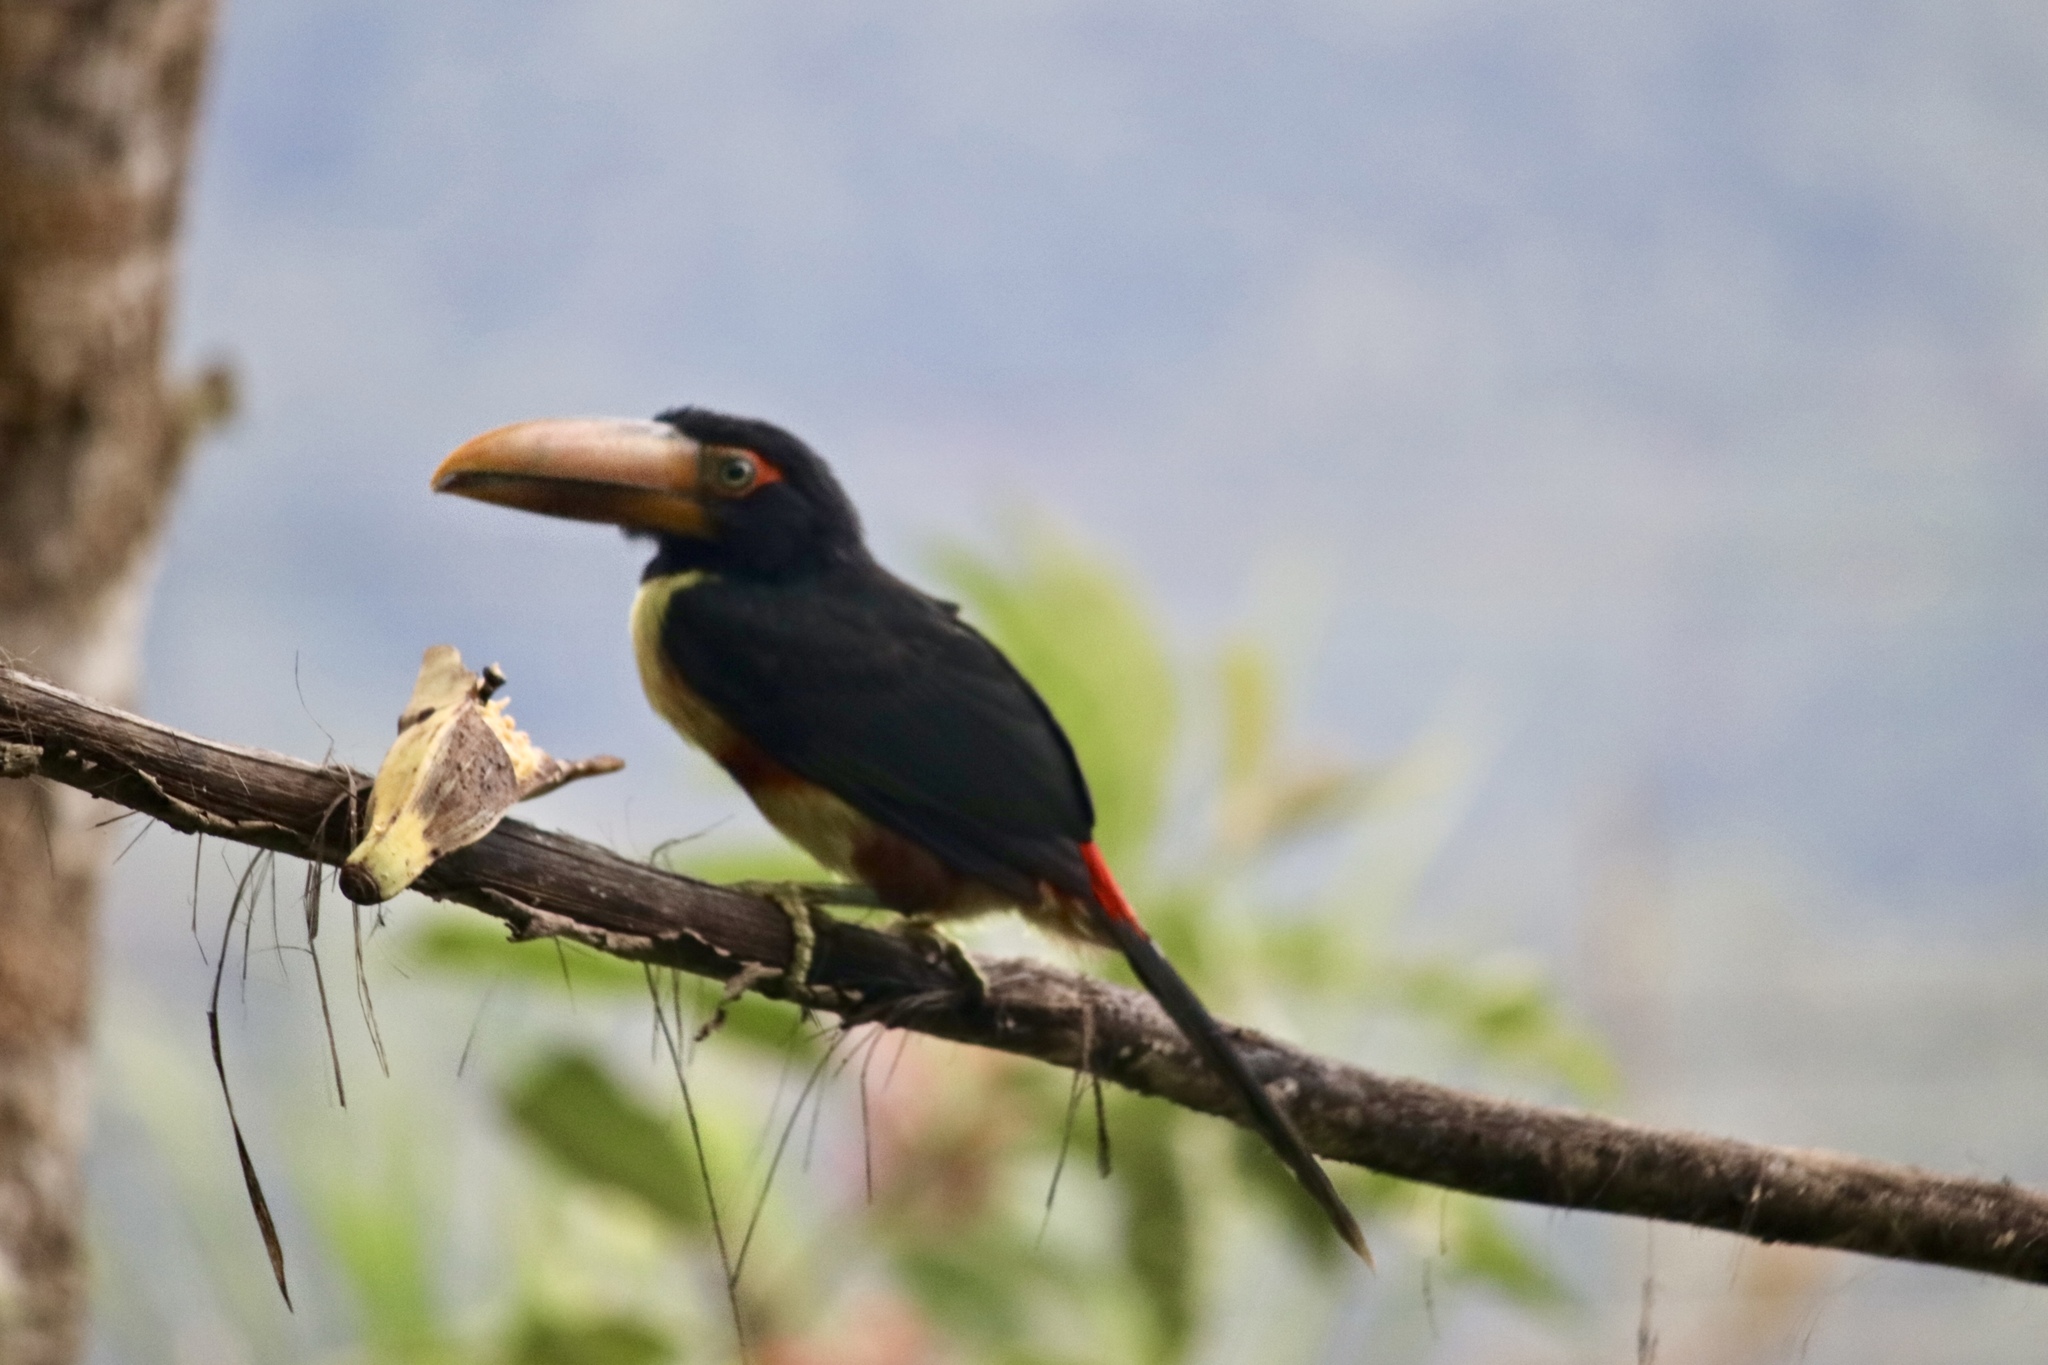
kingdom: Animalia
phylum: Chordata
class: Aves
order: Piciformes
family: Ramphastidae
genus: Pteroglossus
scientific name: Pteroglossus torquatus
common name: Collared aracari
